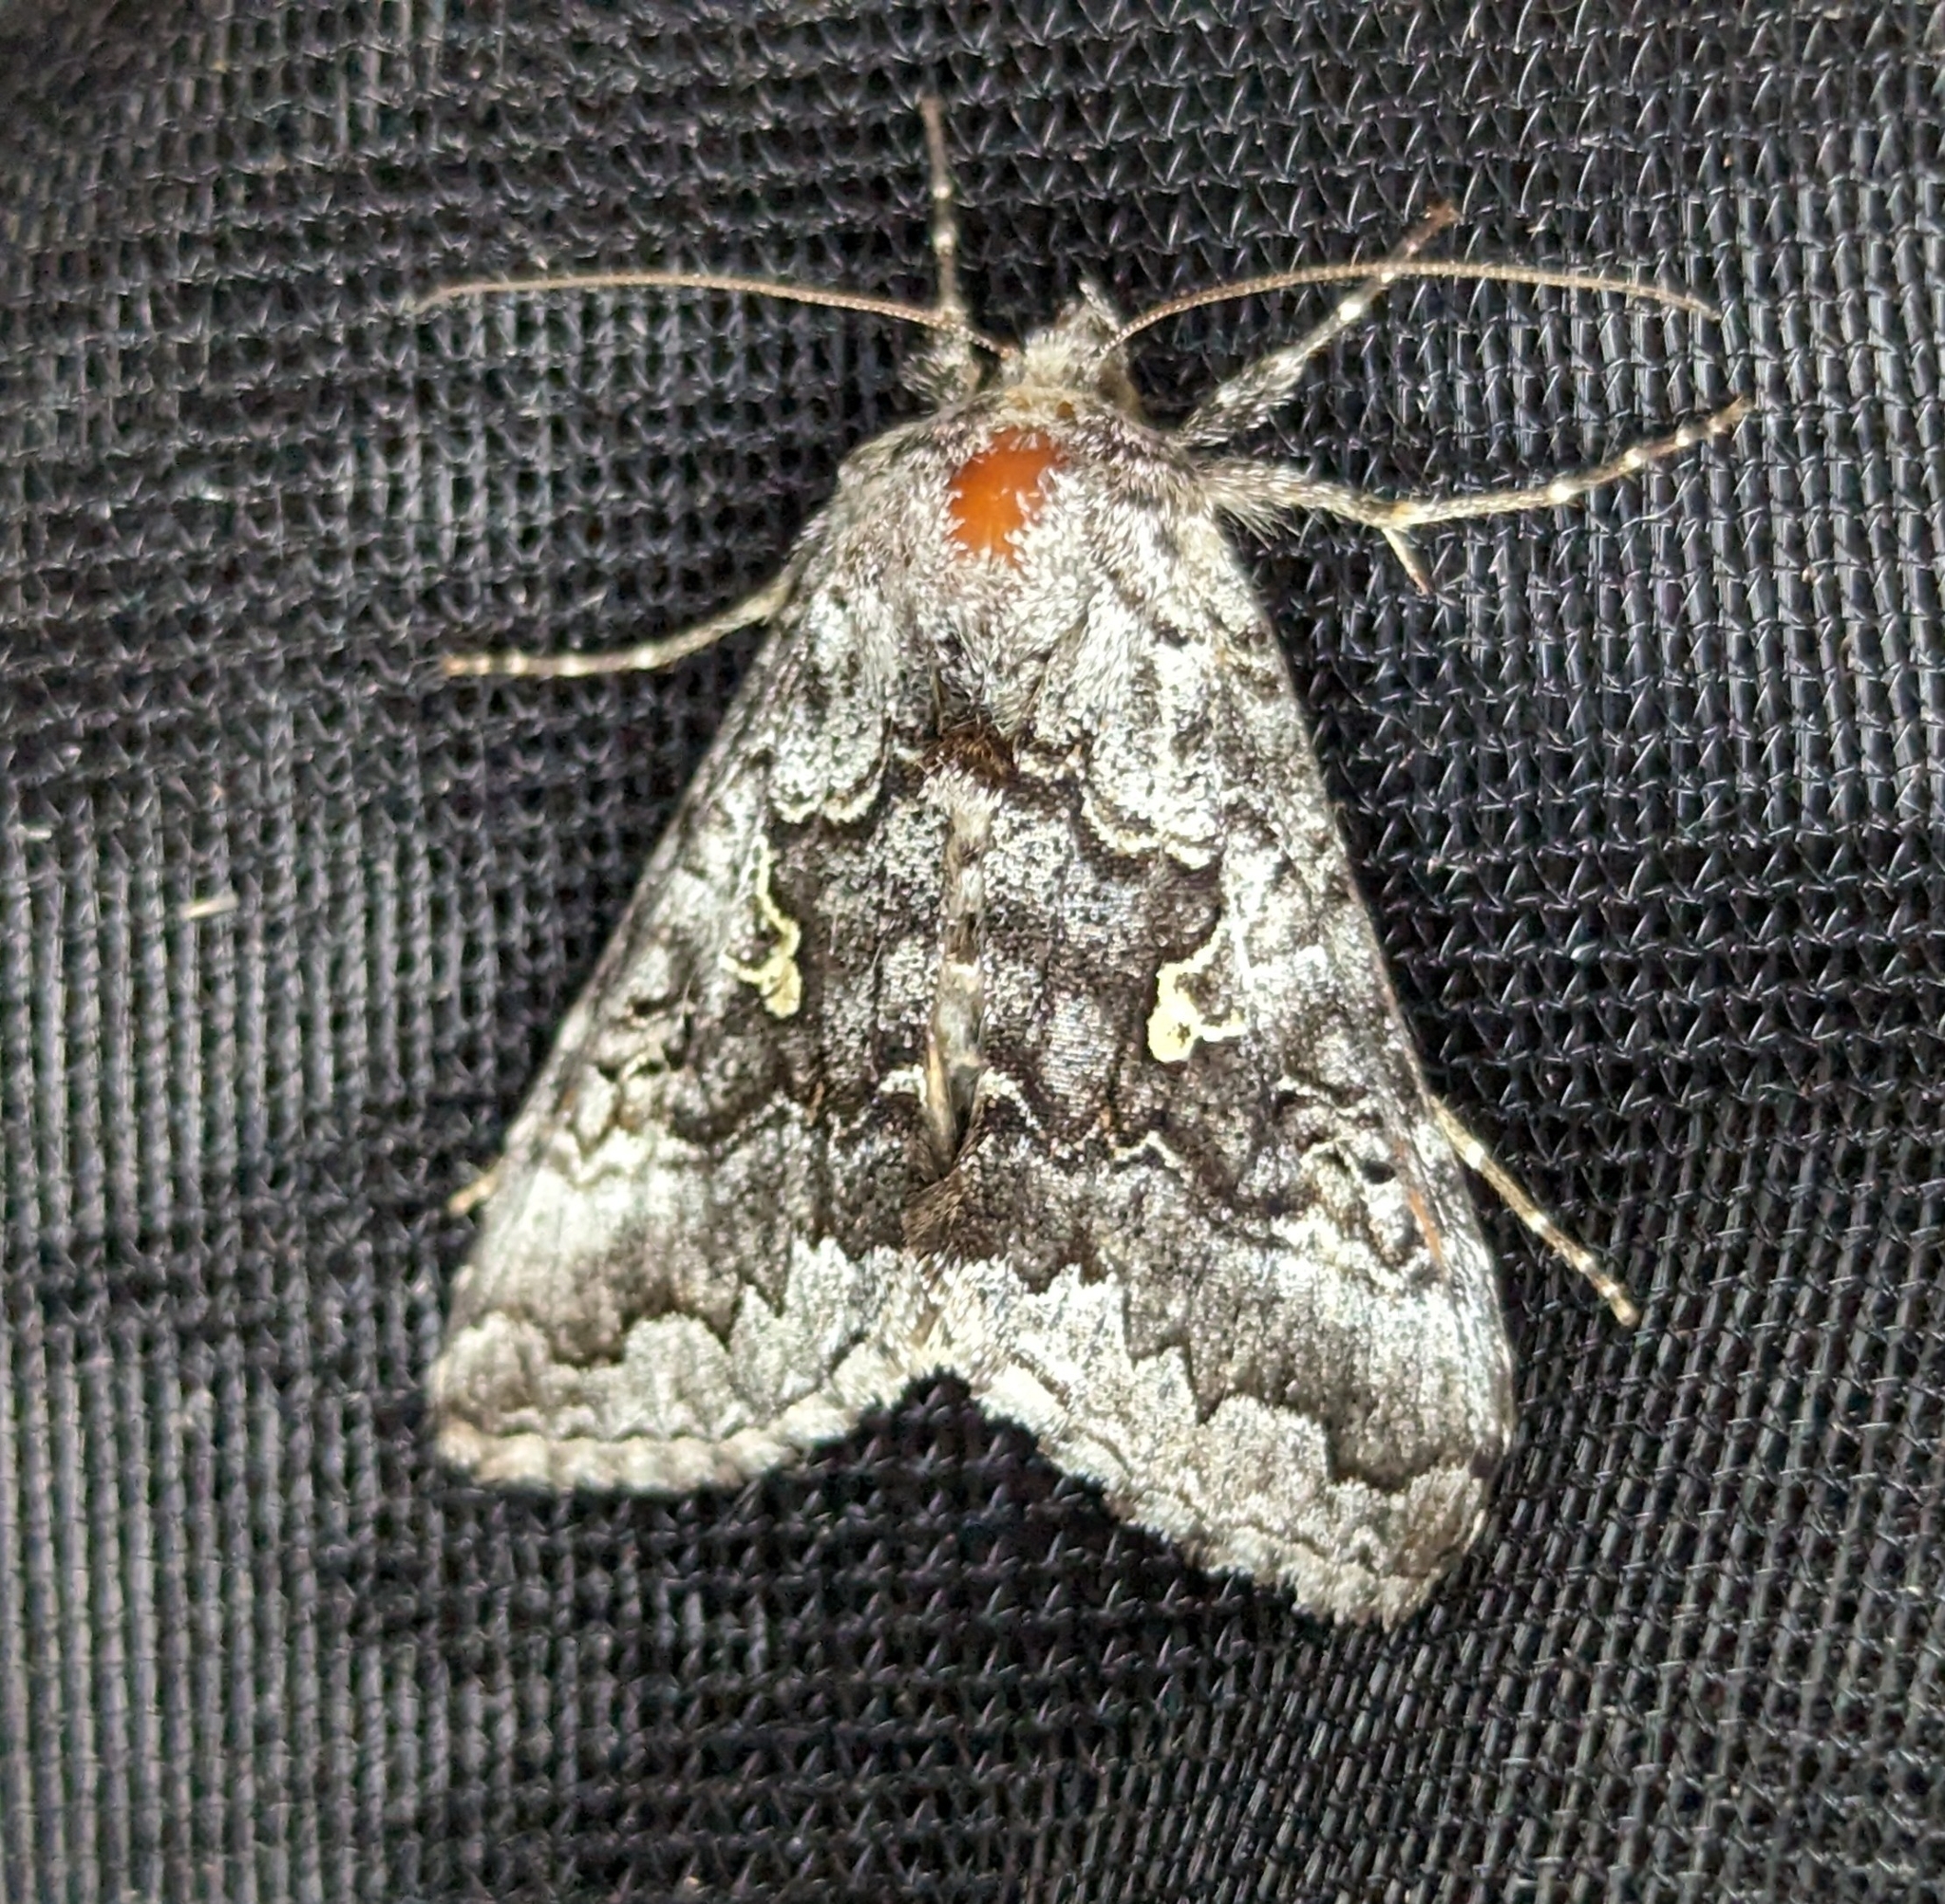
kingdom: Animalia
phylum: Arthropoda
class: Insecta
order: Lepidoptera
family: Noctuidae
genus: Syngrapha
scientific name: Syngrapha celsa
